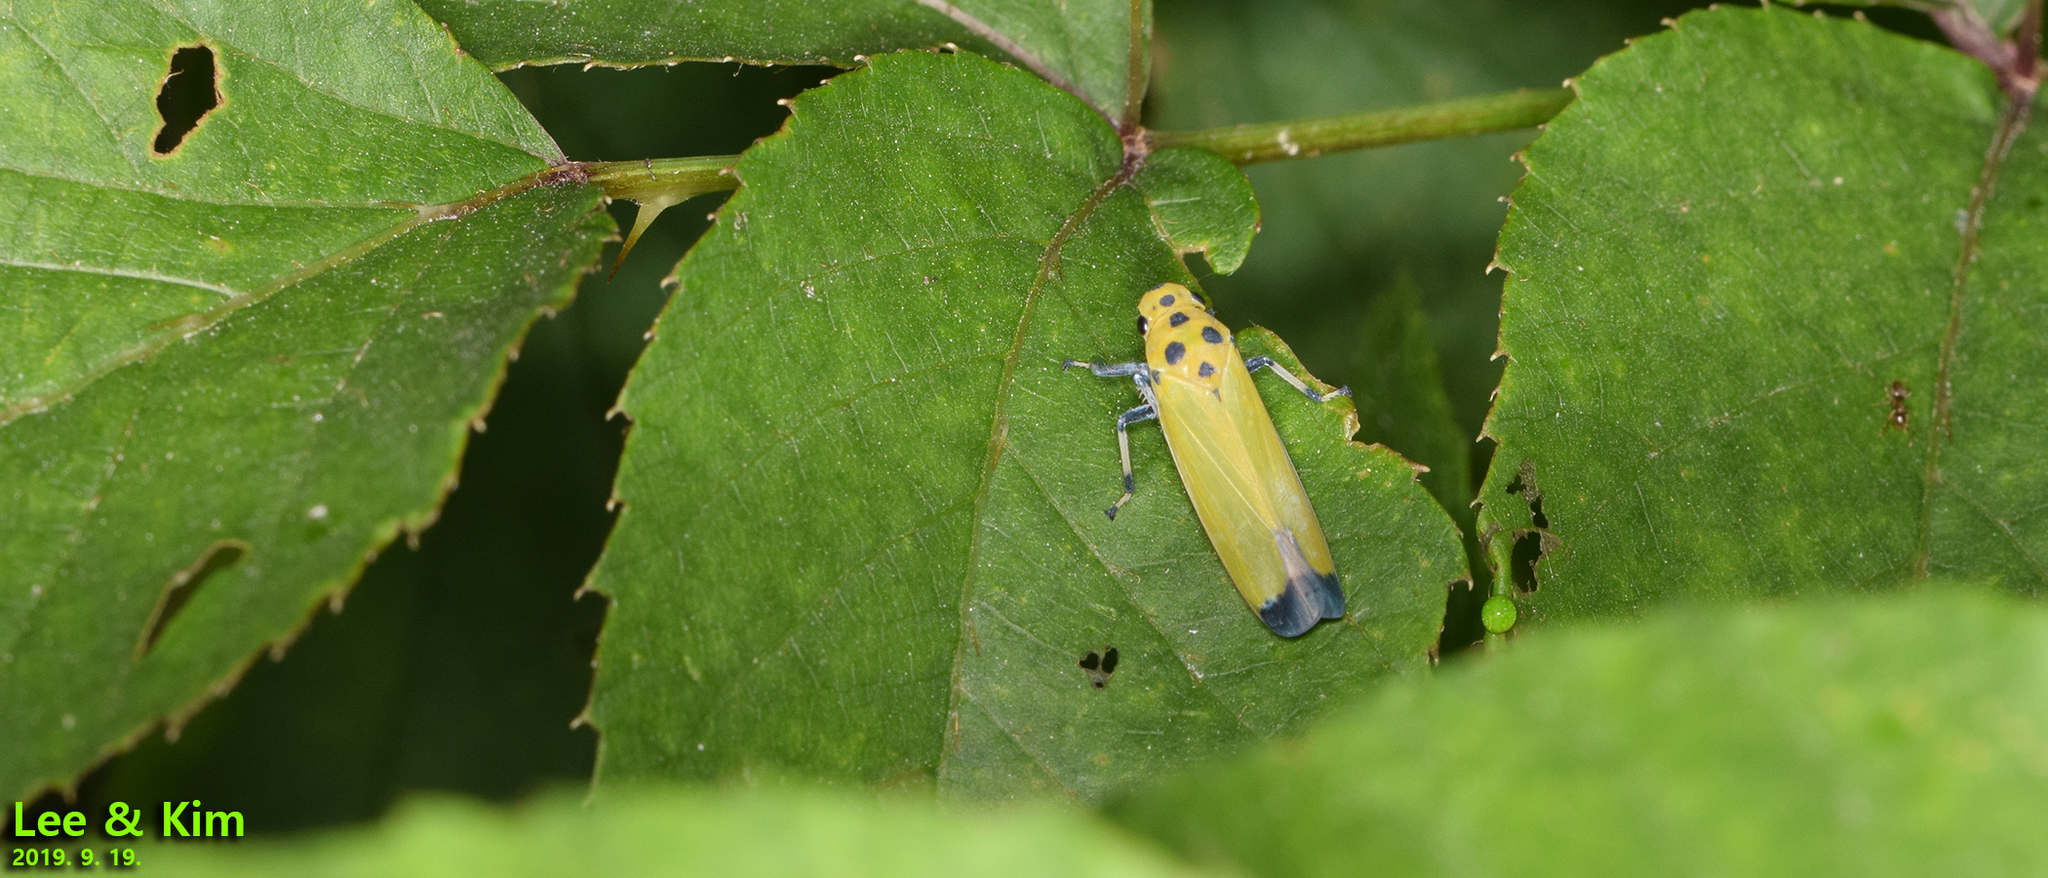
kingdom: Animalia
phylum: Arthropoda
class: Insecta
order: Hemiptera
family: Cicadellidae
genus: Bothrogonia
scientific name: Bothrogonia ferruginea
